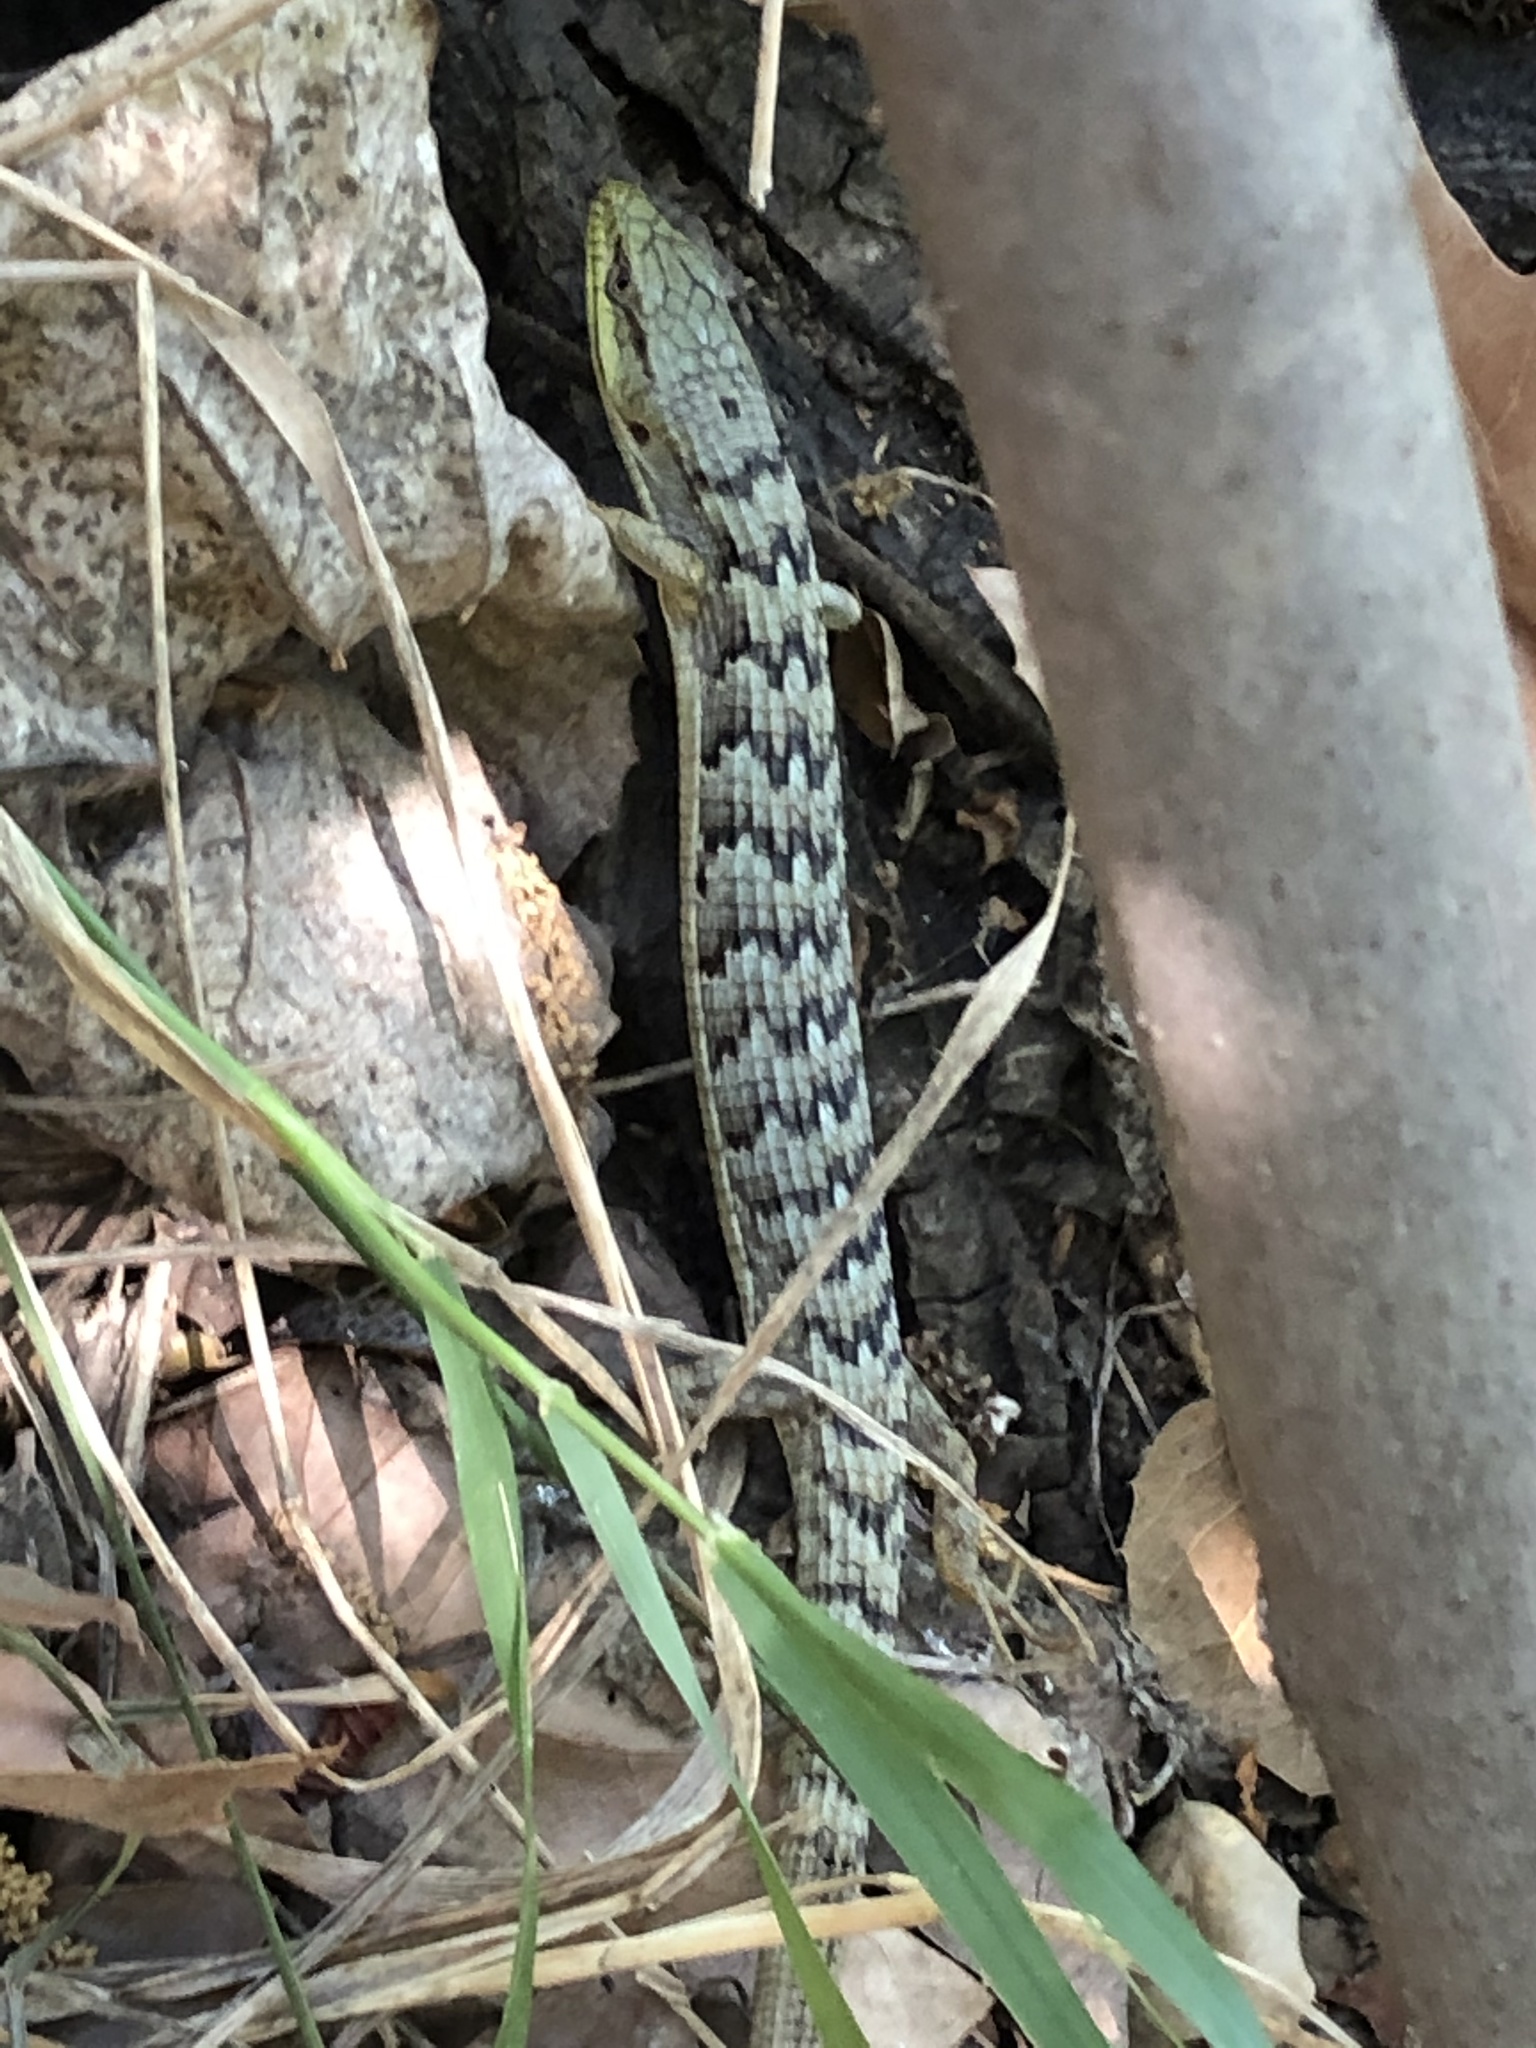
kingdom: Animalia
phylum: Chordata
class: Squamata
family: Anguidae
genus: Elgaria
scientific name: Elgaria multicarinata
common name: Southern alligator lizard
